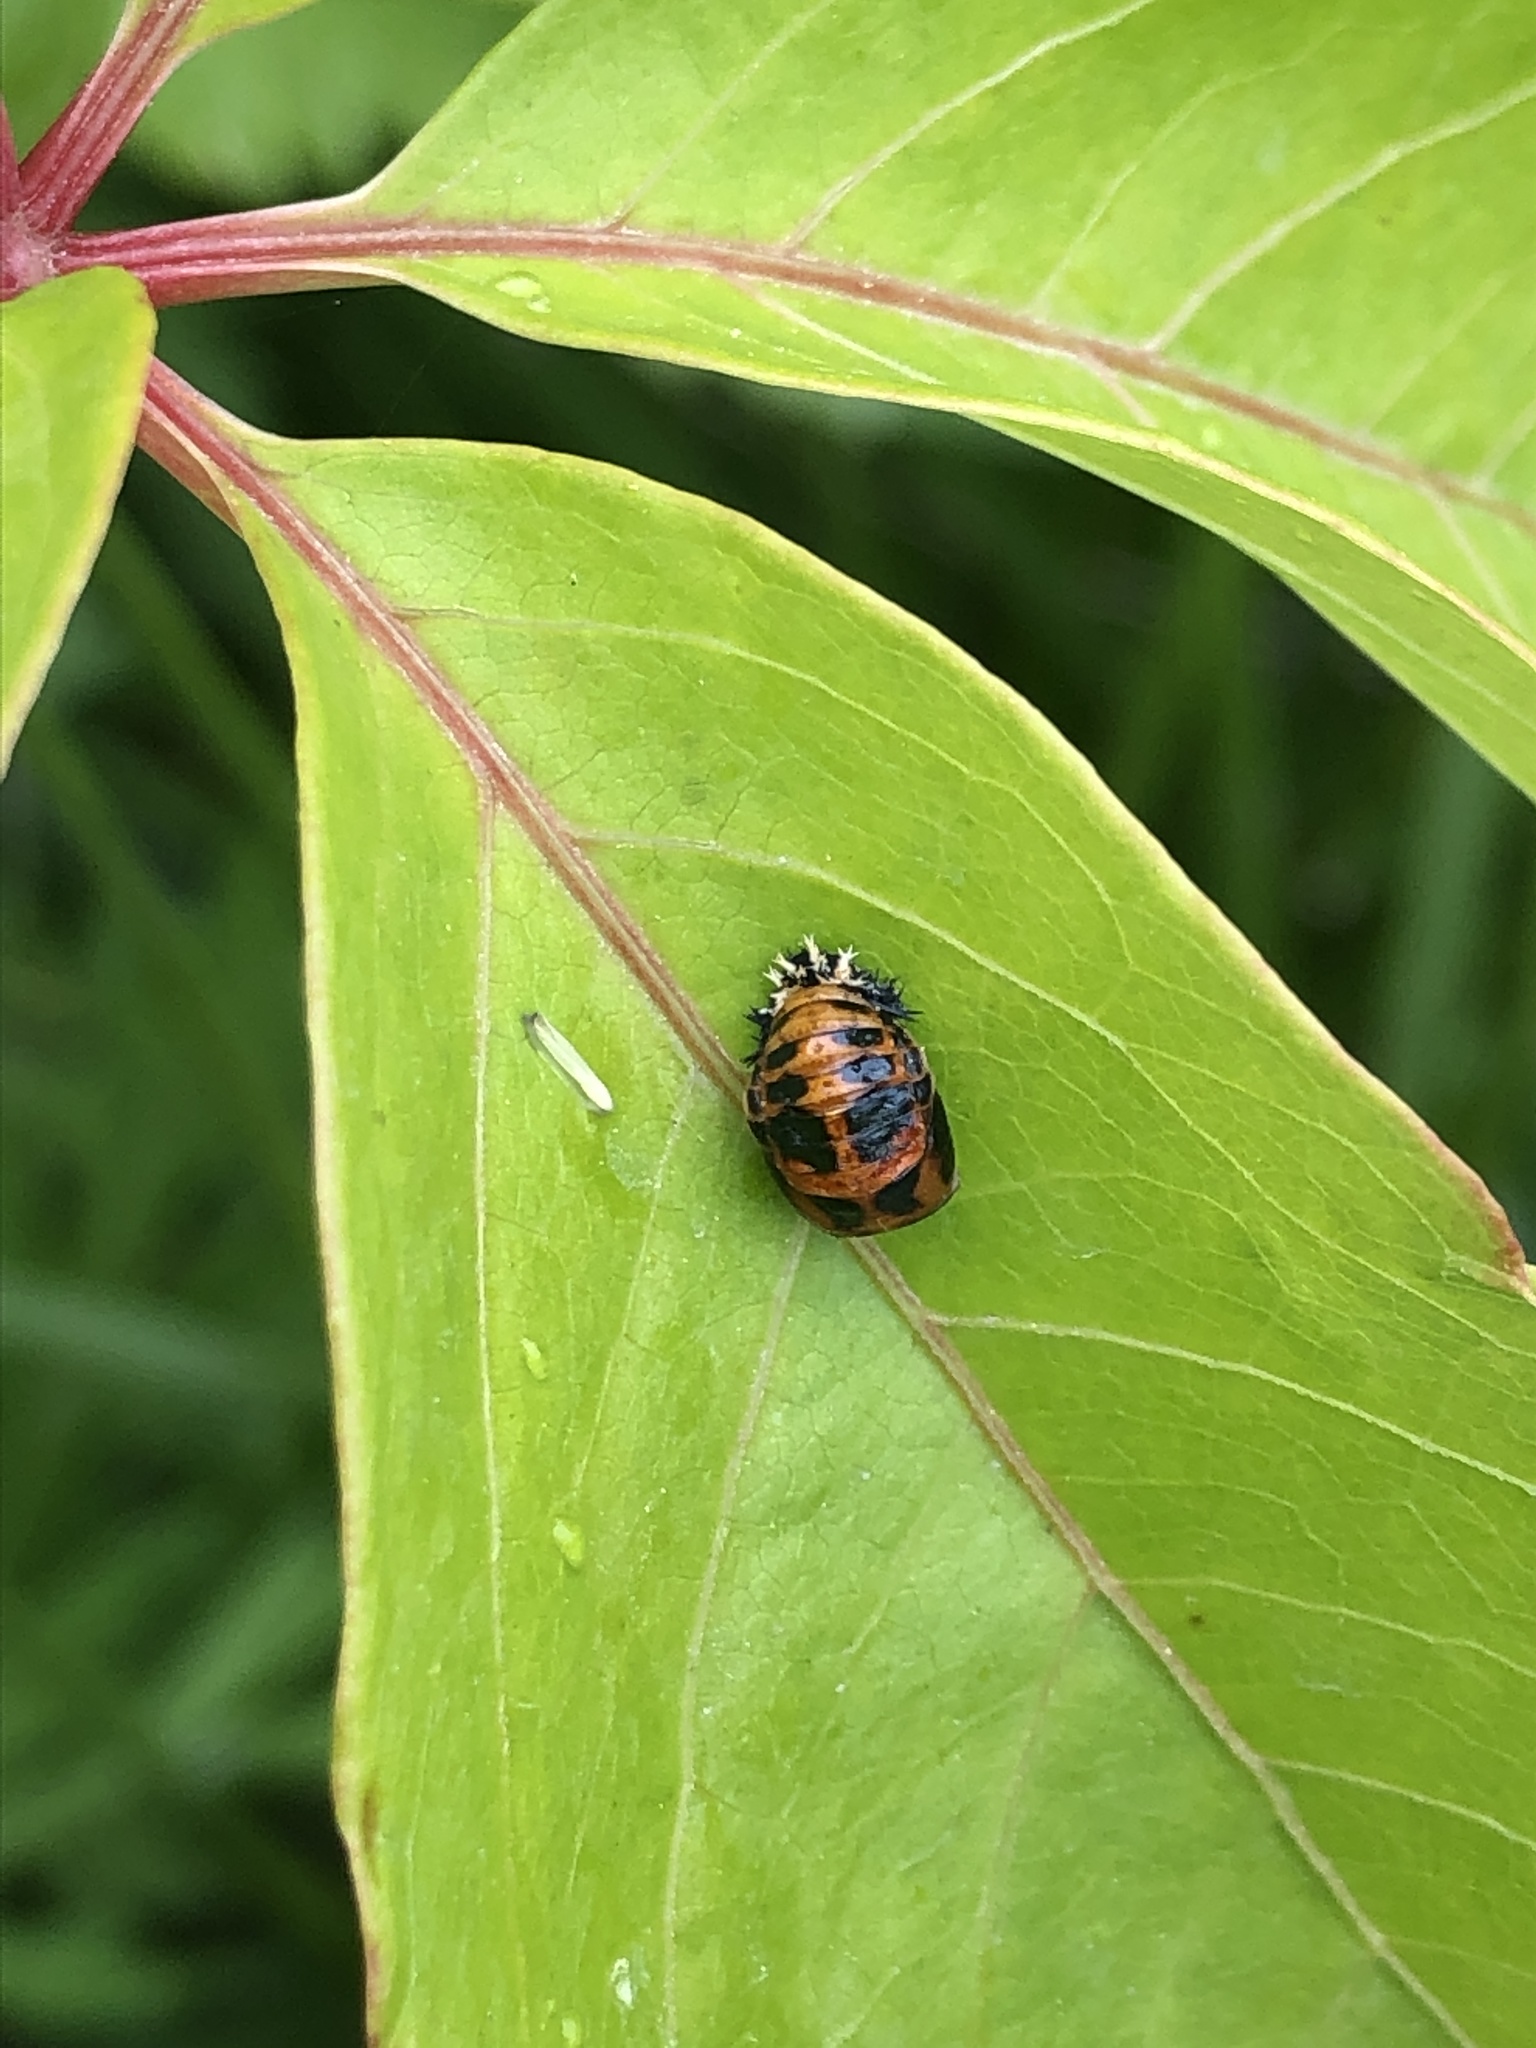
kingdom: Animalia
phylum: Arthropoda
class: Insecta
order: Coleoptera
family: Coccinellidae
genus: Harmonia
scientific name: Harmonia axyridis
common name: Harlequin ladybird
